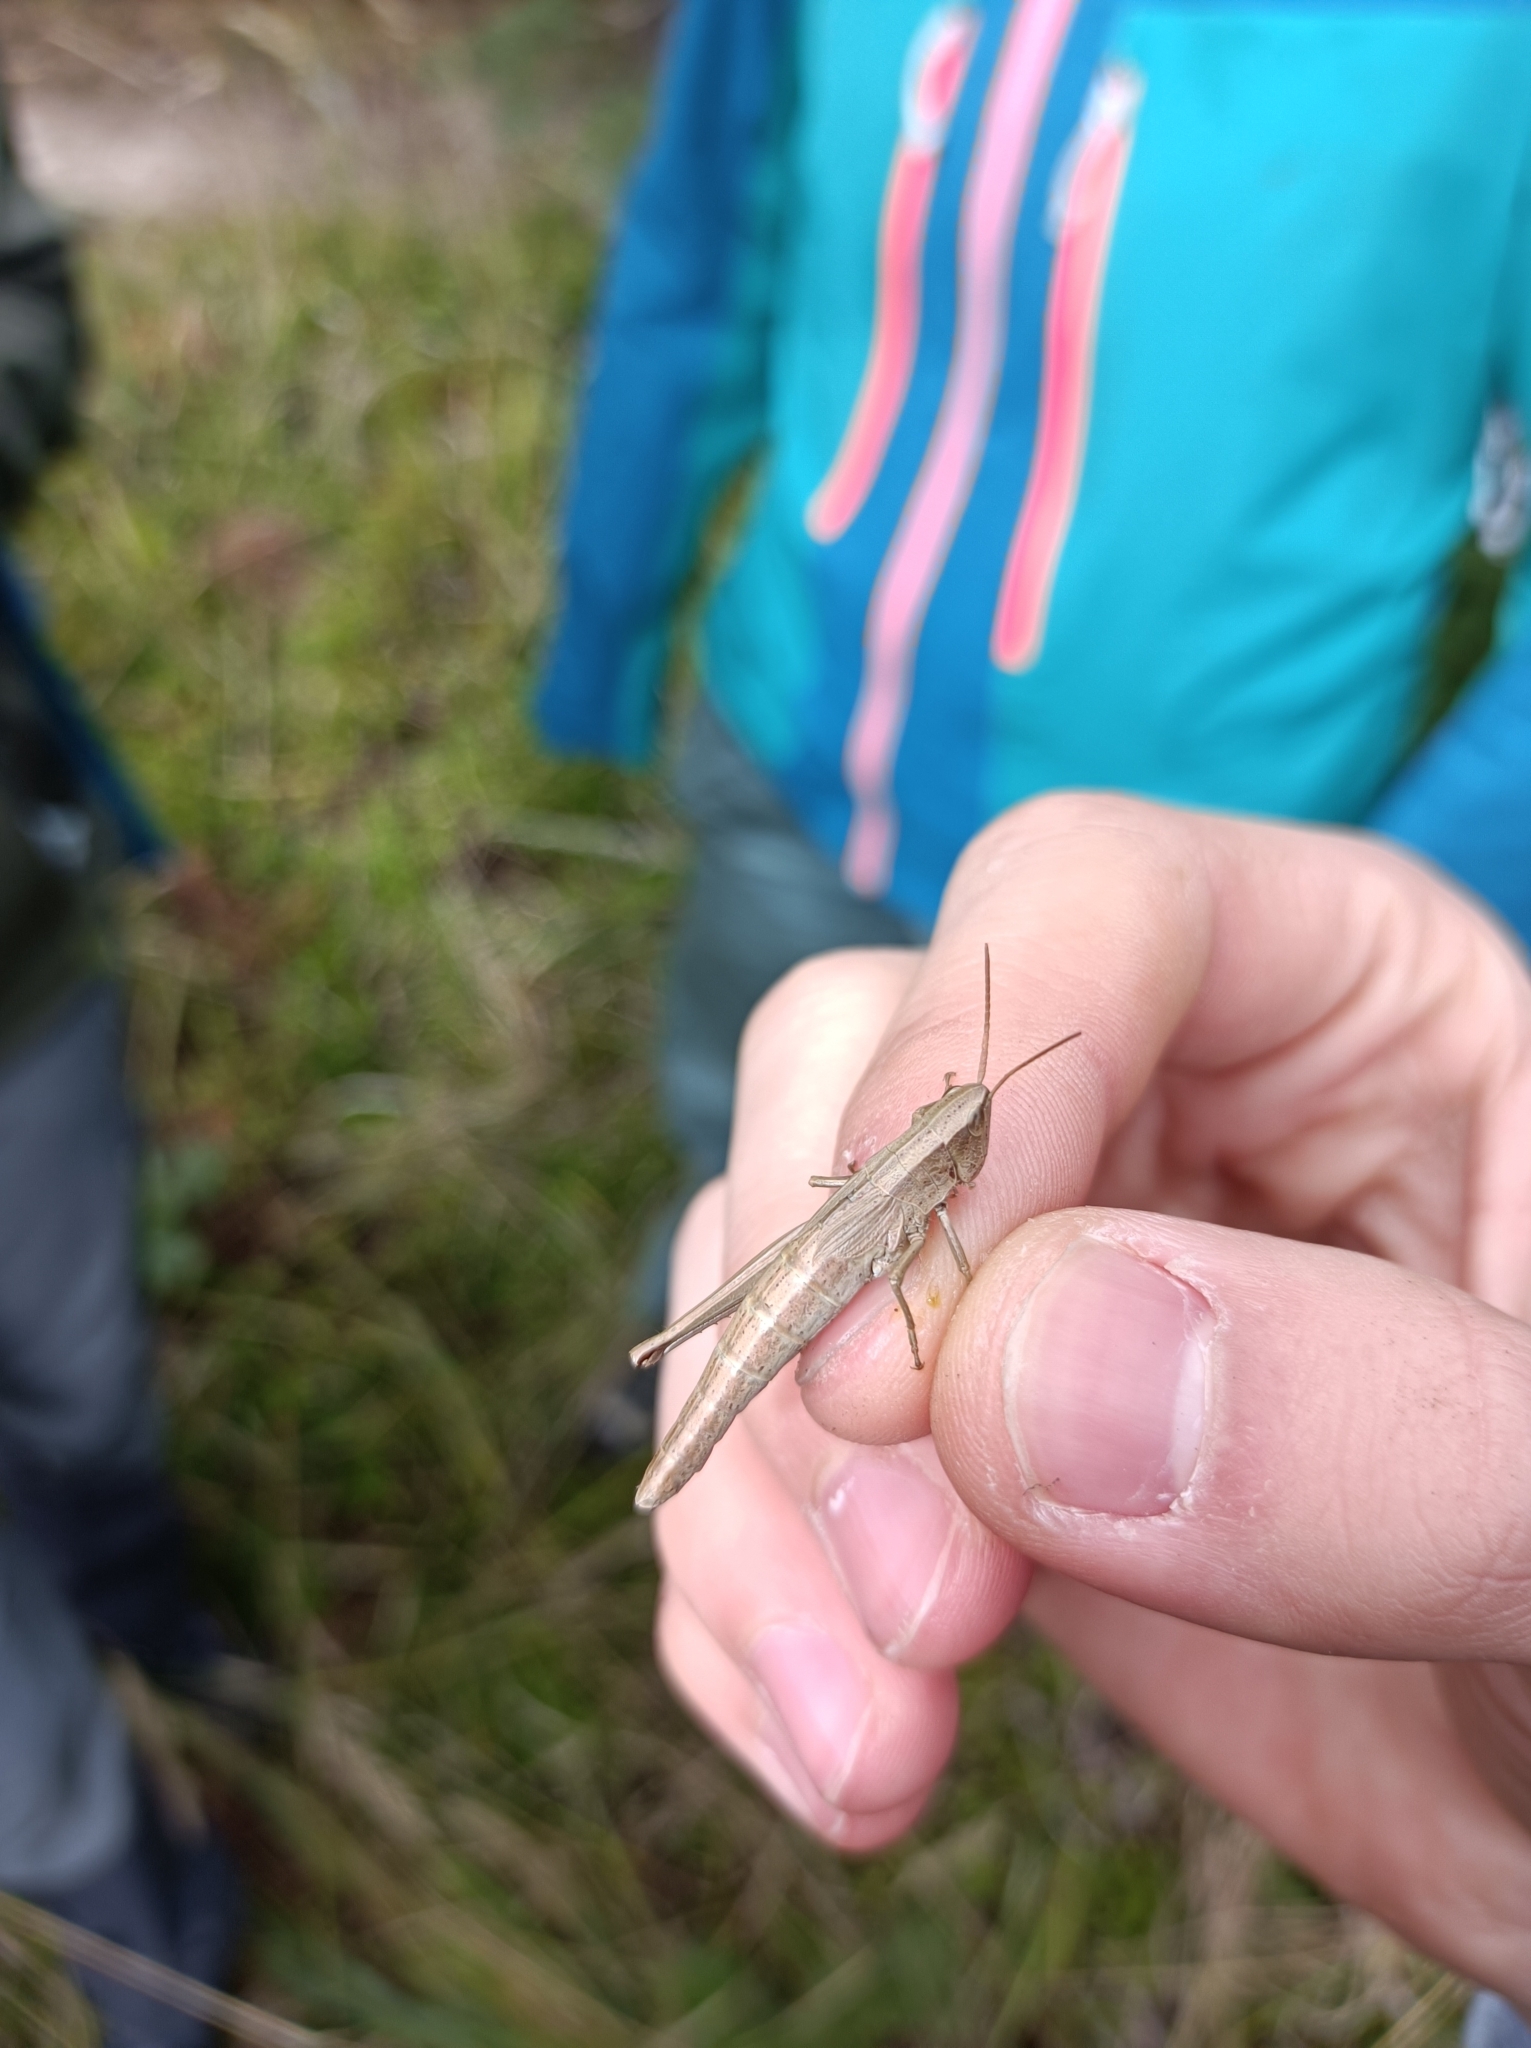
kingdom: Animalia
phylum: Arthropoda
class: Insecta
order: Orthoptera
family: Acrididae
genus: Chrysochraon
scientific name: Chrysochraon dispar
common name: Large gold grasshopper
